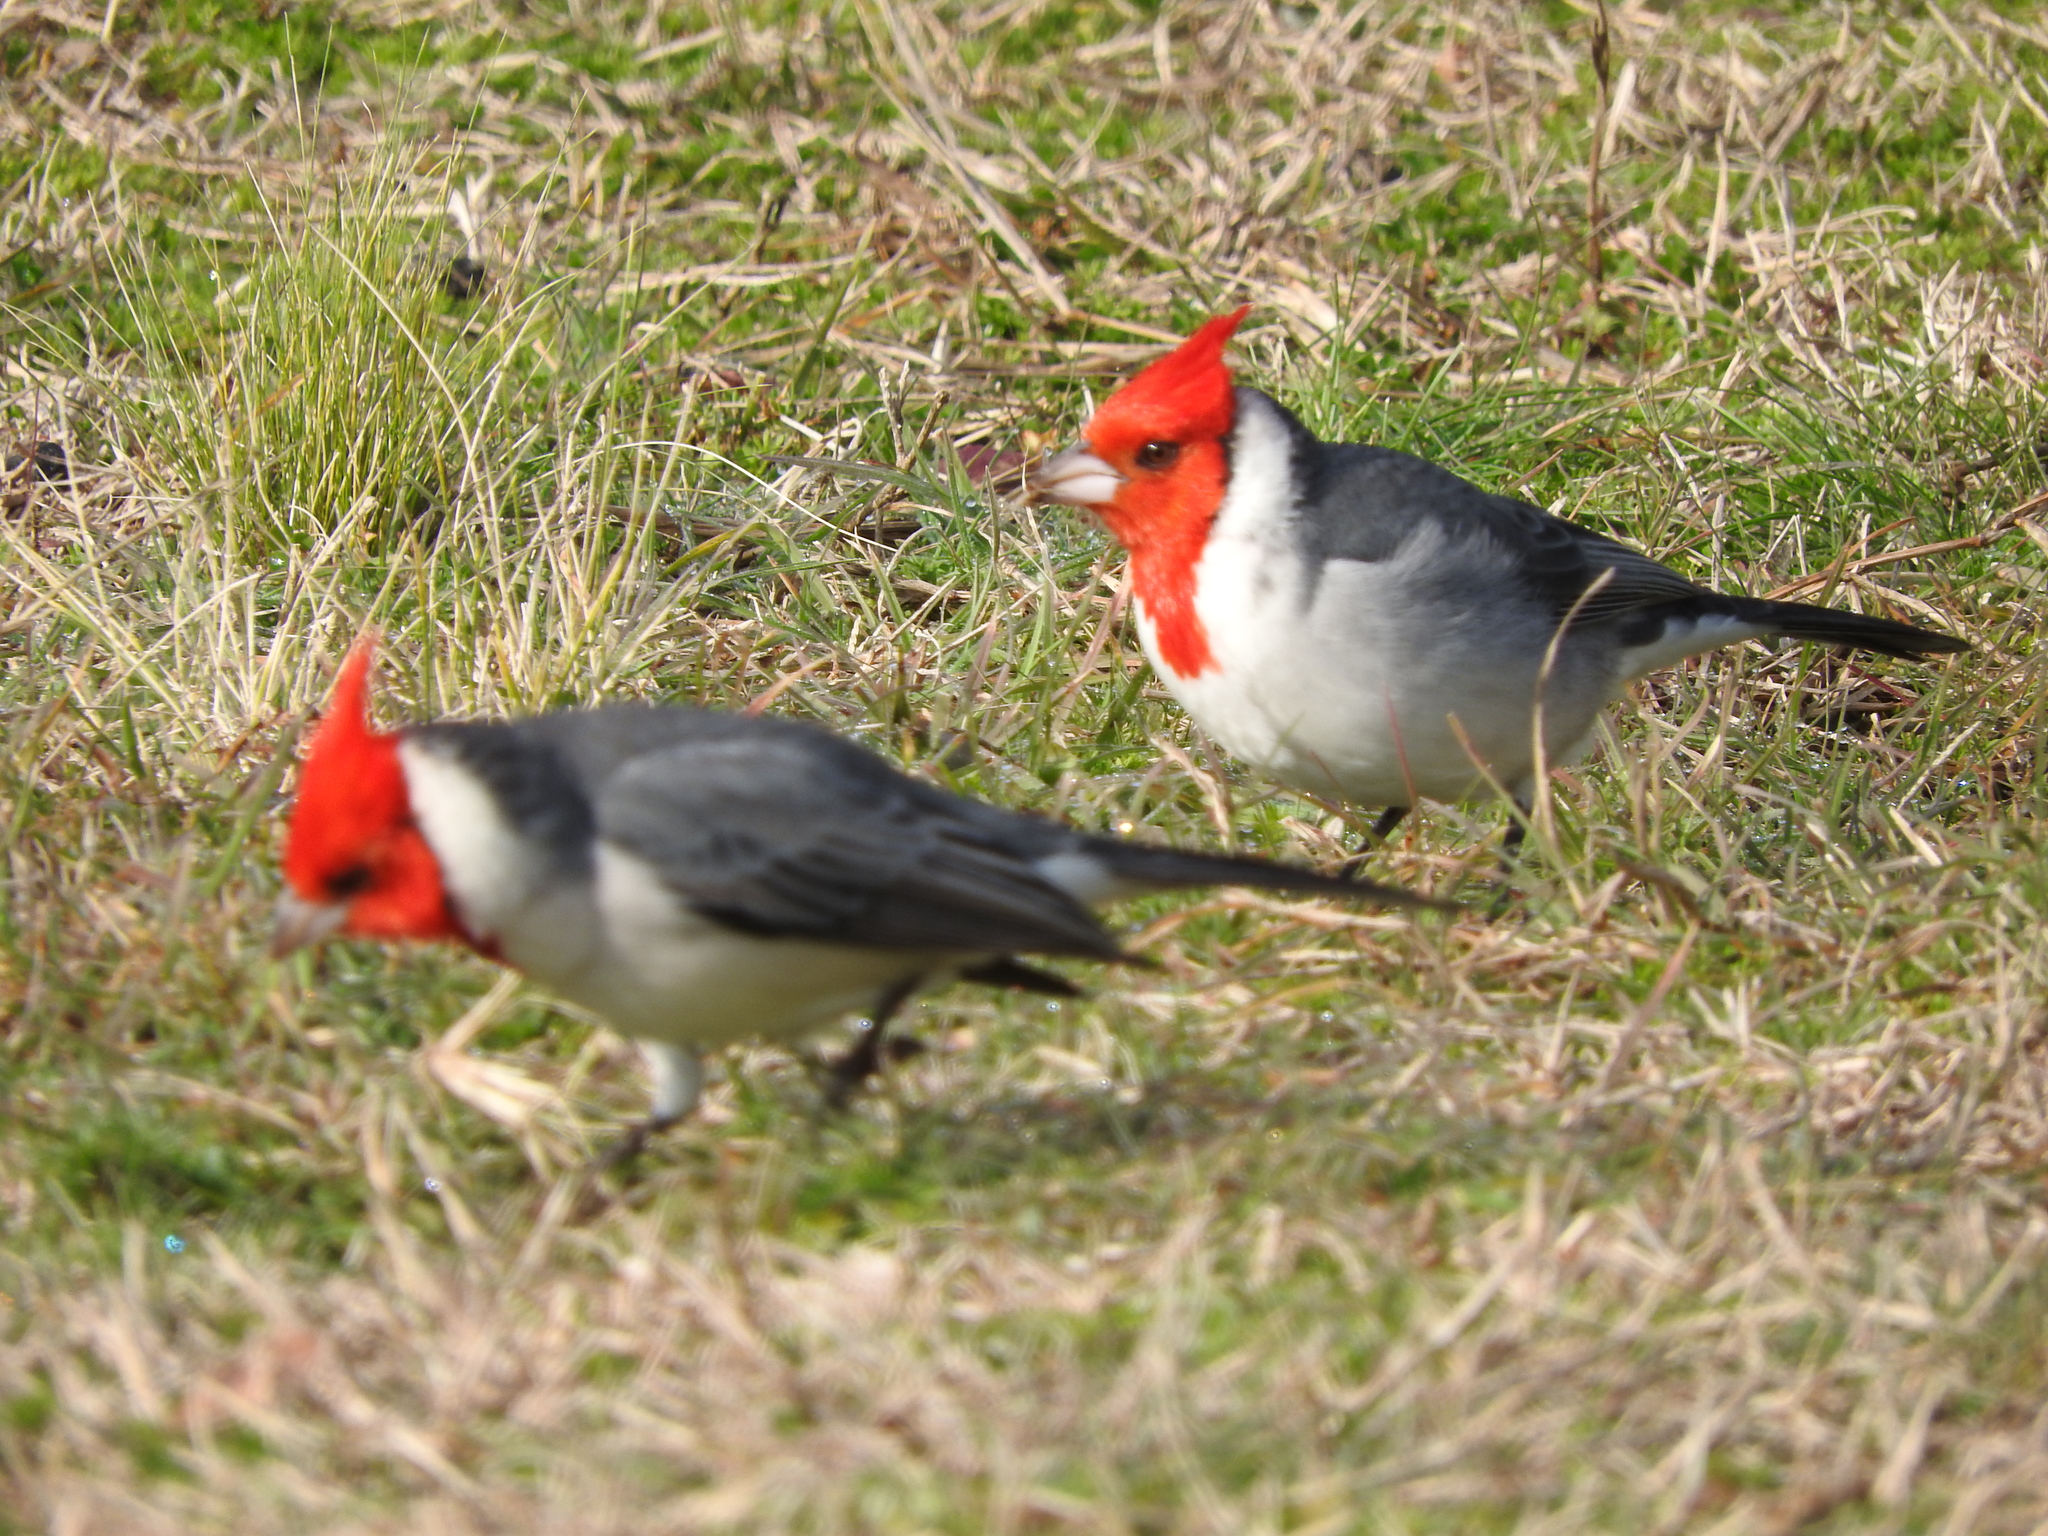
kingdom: Animalia
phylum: Chordata
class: Aves
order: Passeriformes
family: Thraupidae
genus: Paroaria
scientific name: Paroaria coronata
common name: Red-crested cardinal
